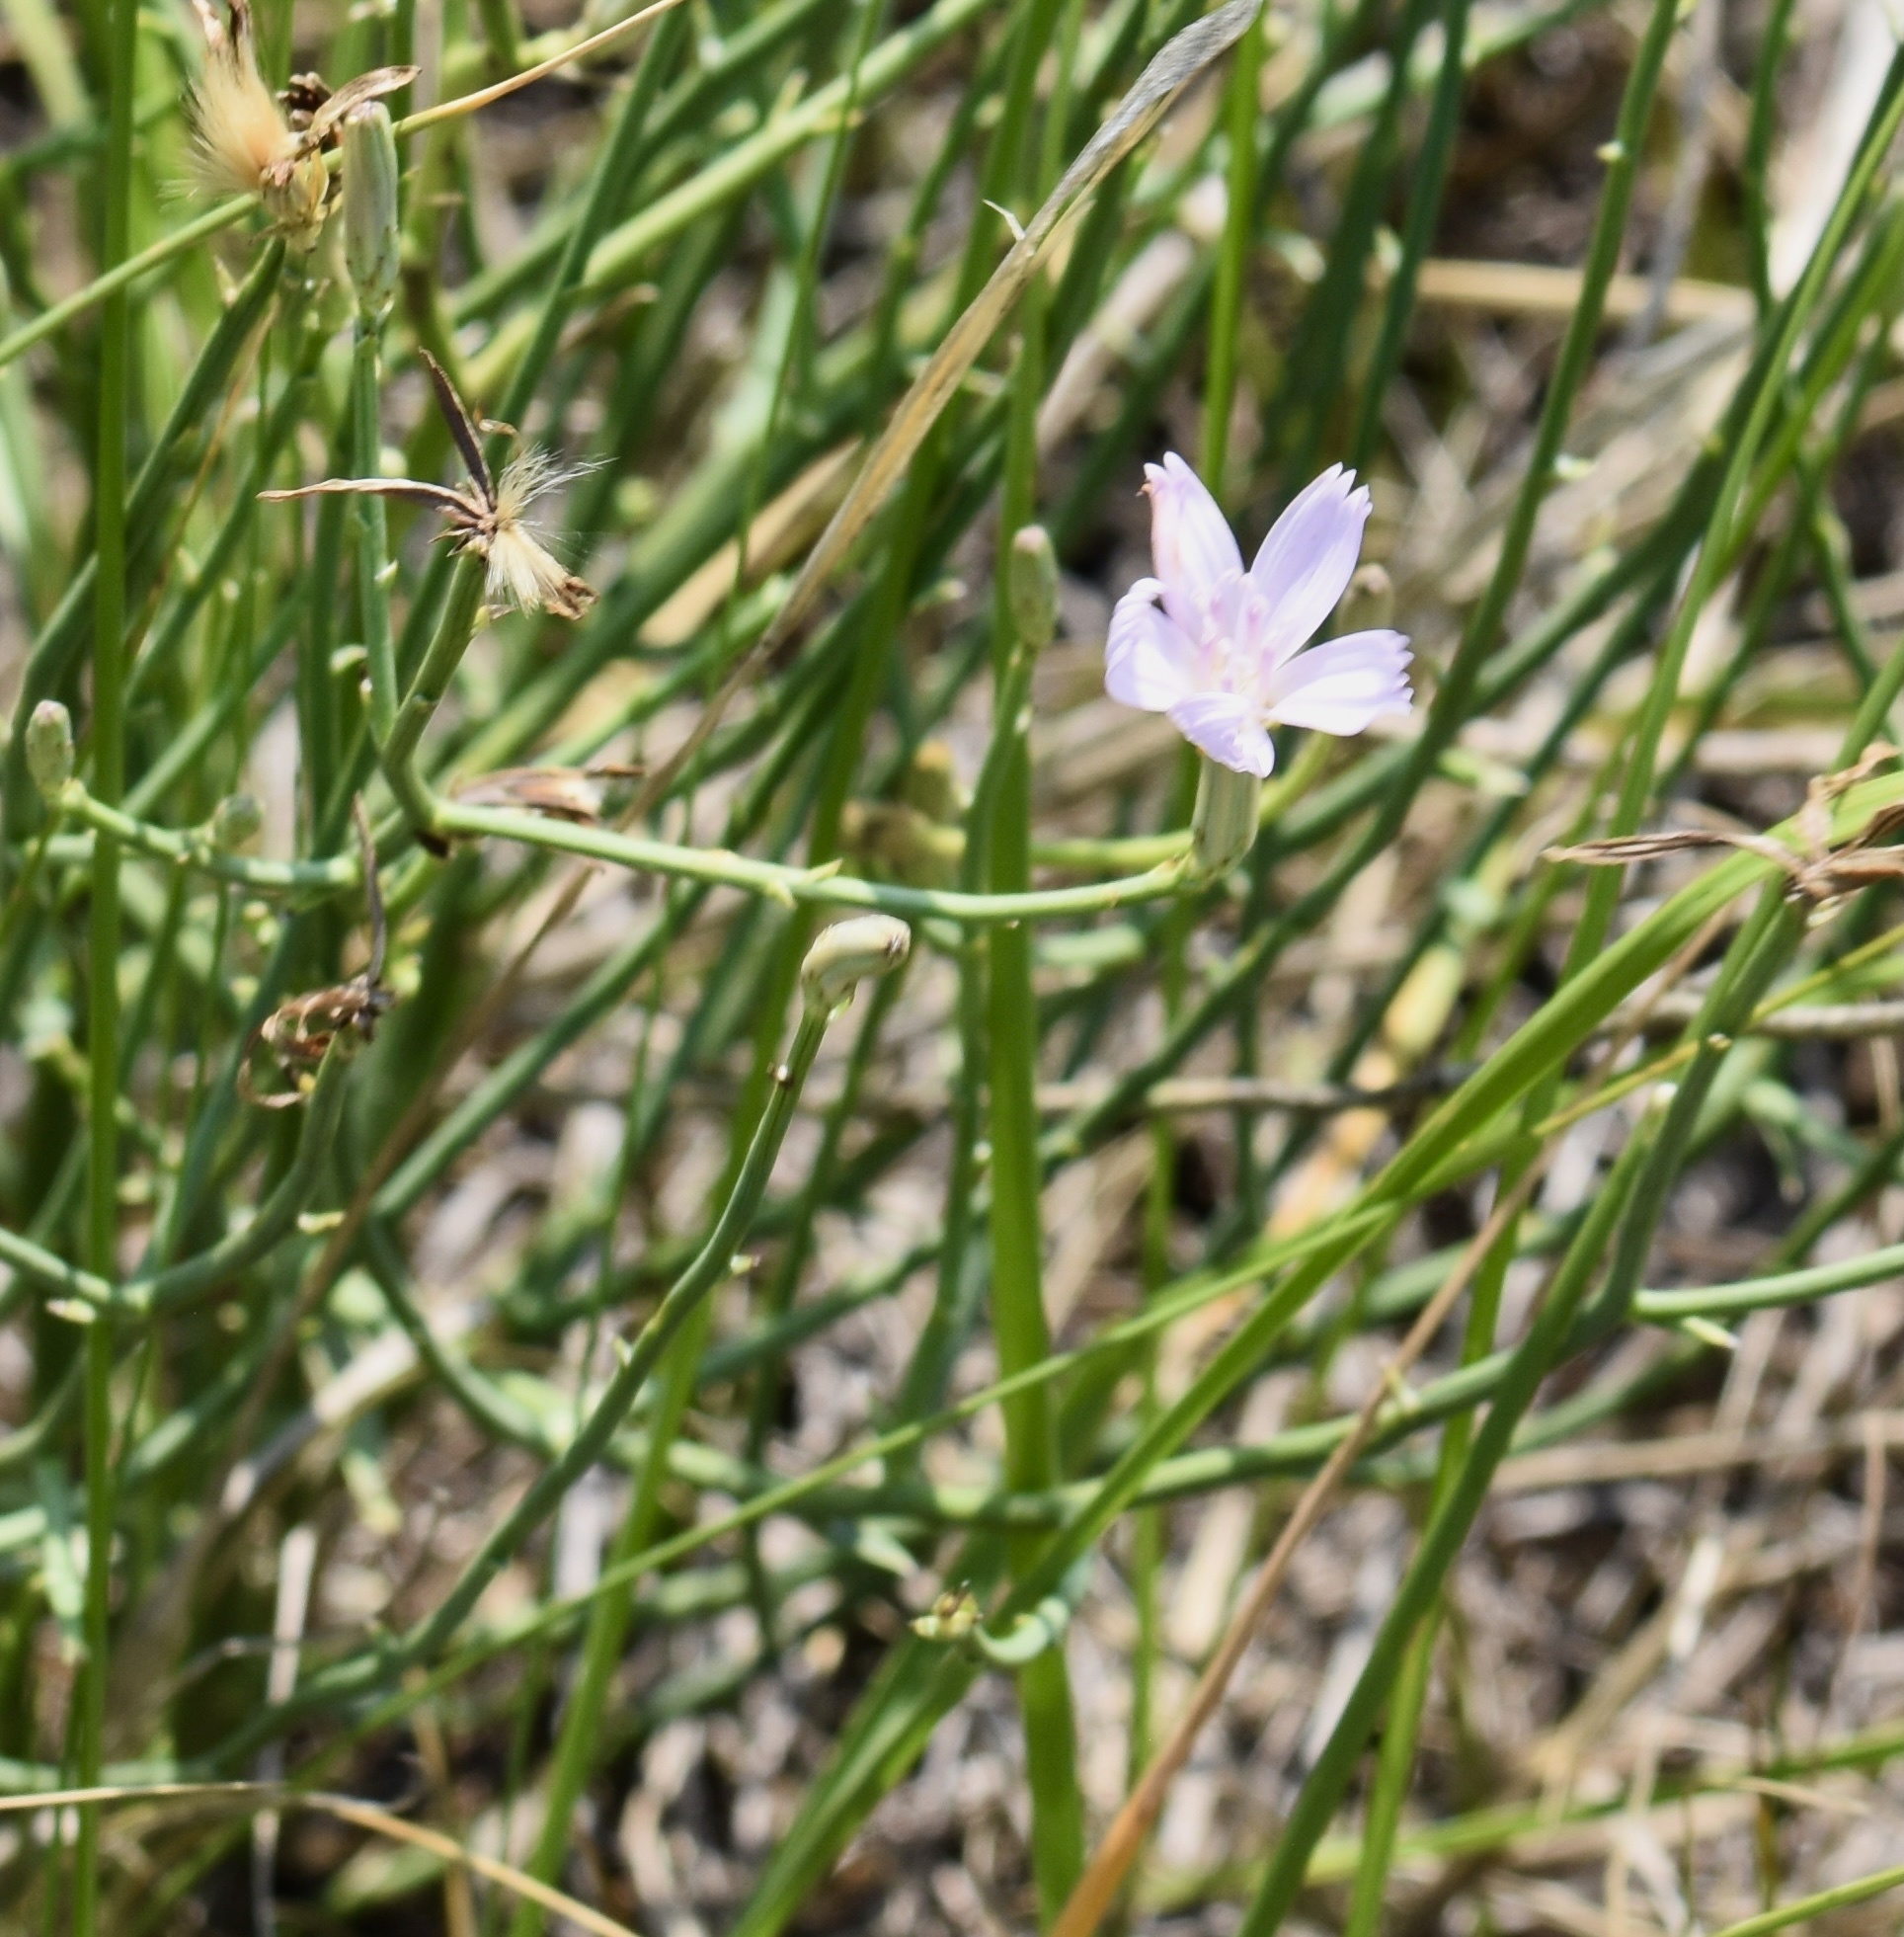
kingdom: Plantae
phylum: Tracheophyta
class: Magnoliopsida
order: Asterales
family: Asteraceae
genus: Lygodesmia
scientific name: Lygodesmia juncea
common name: Common skeletonweed
